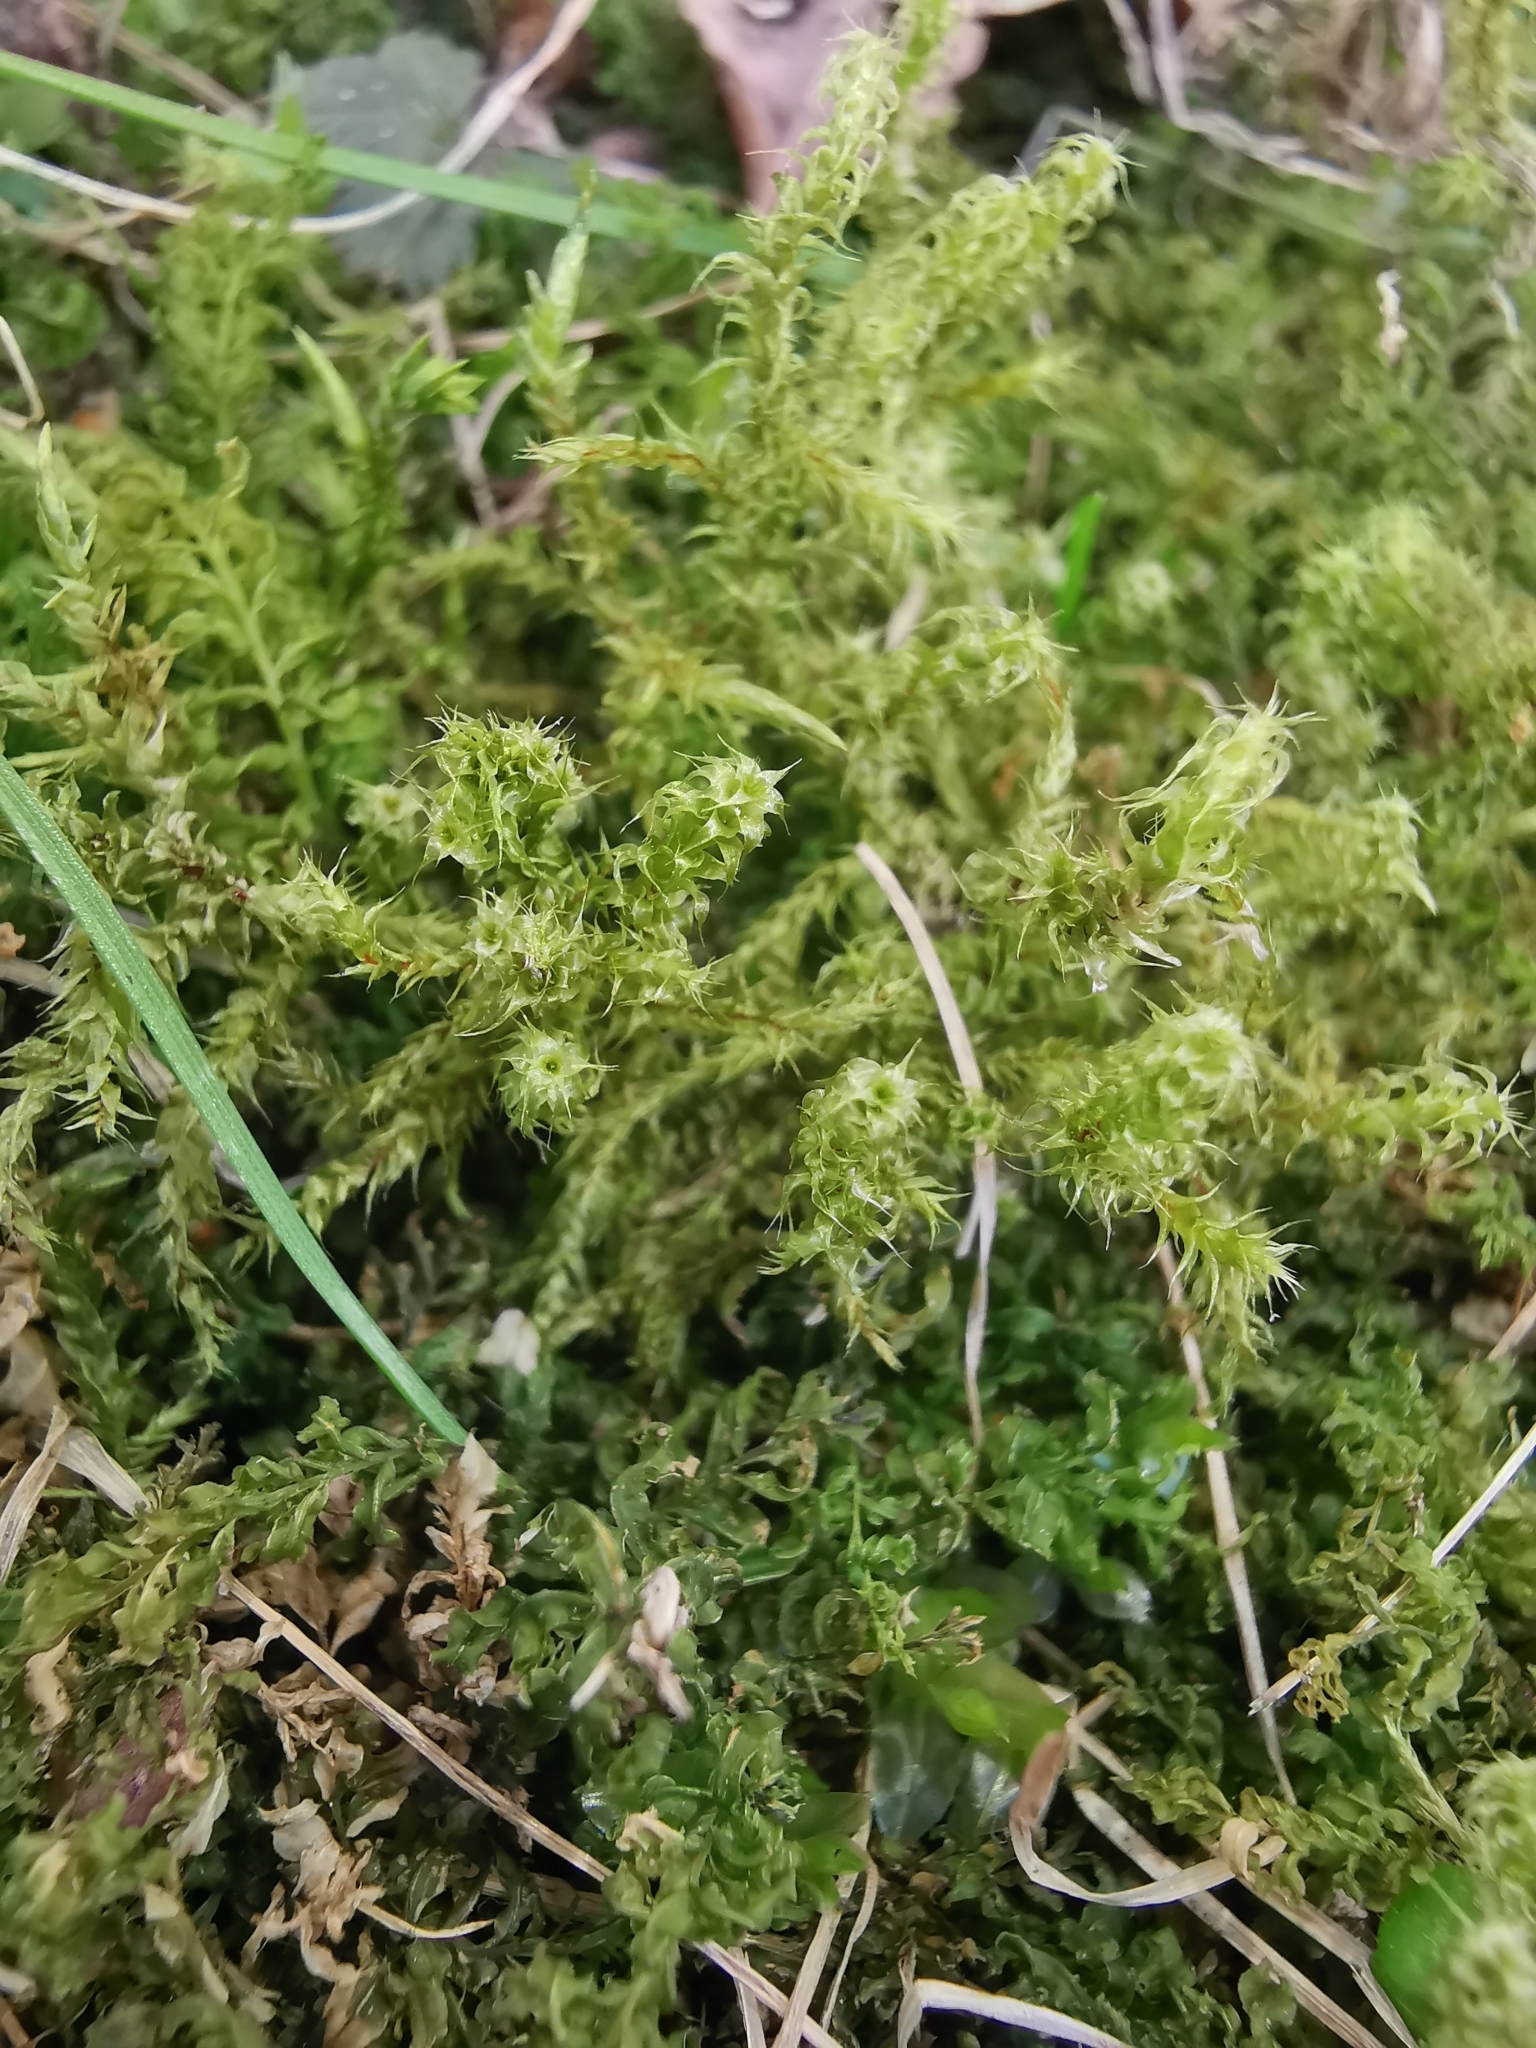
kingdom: Plantae
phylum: Bryophyta
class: Bryopsida
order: Hypnales
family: Hylocomiaceae
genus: Rhytidiadelphus
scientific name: Rhytidiadelphus squarrosus
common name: Springy turf-moss
